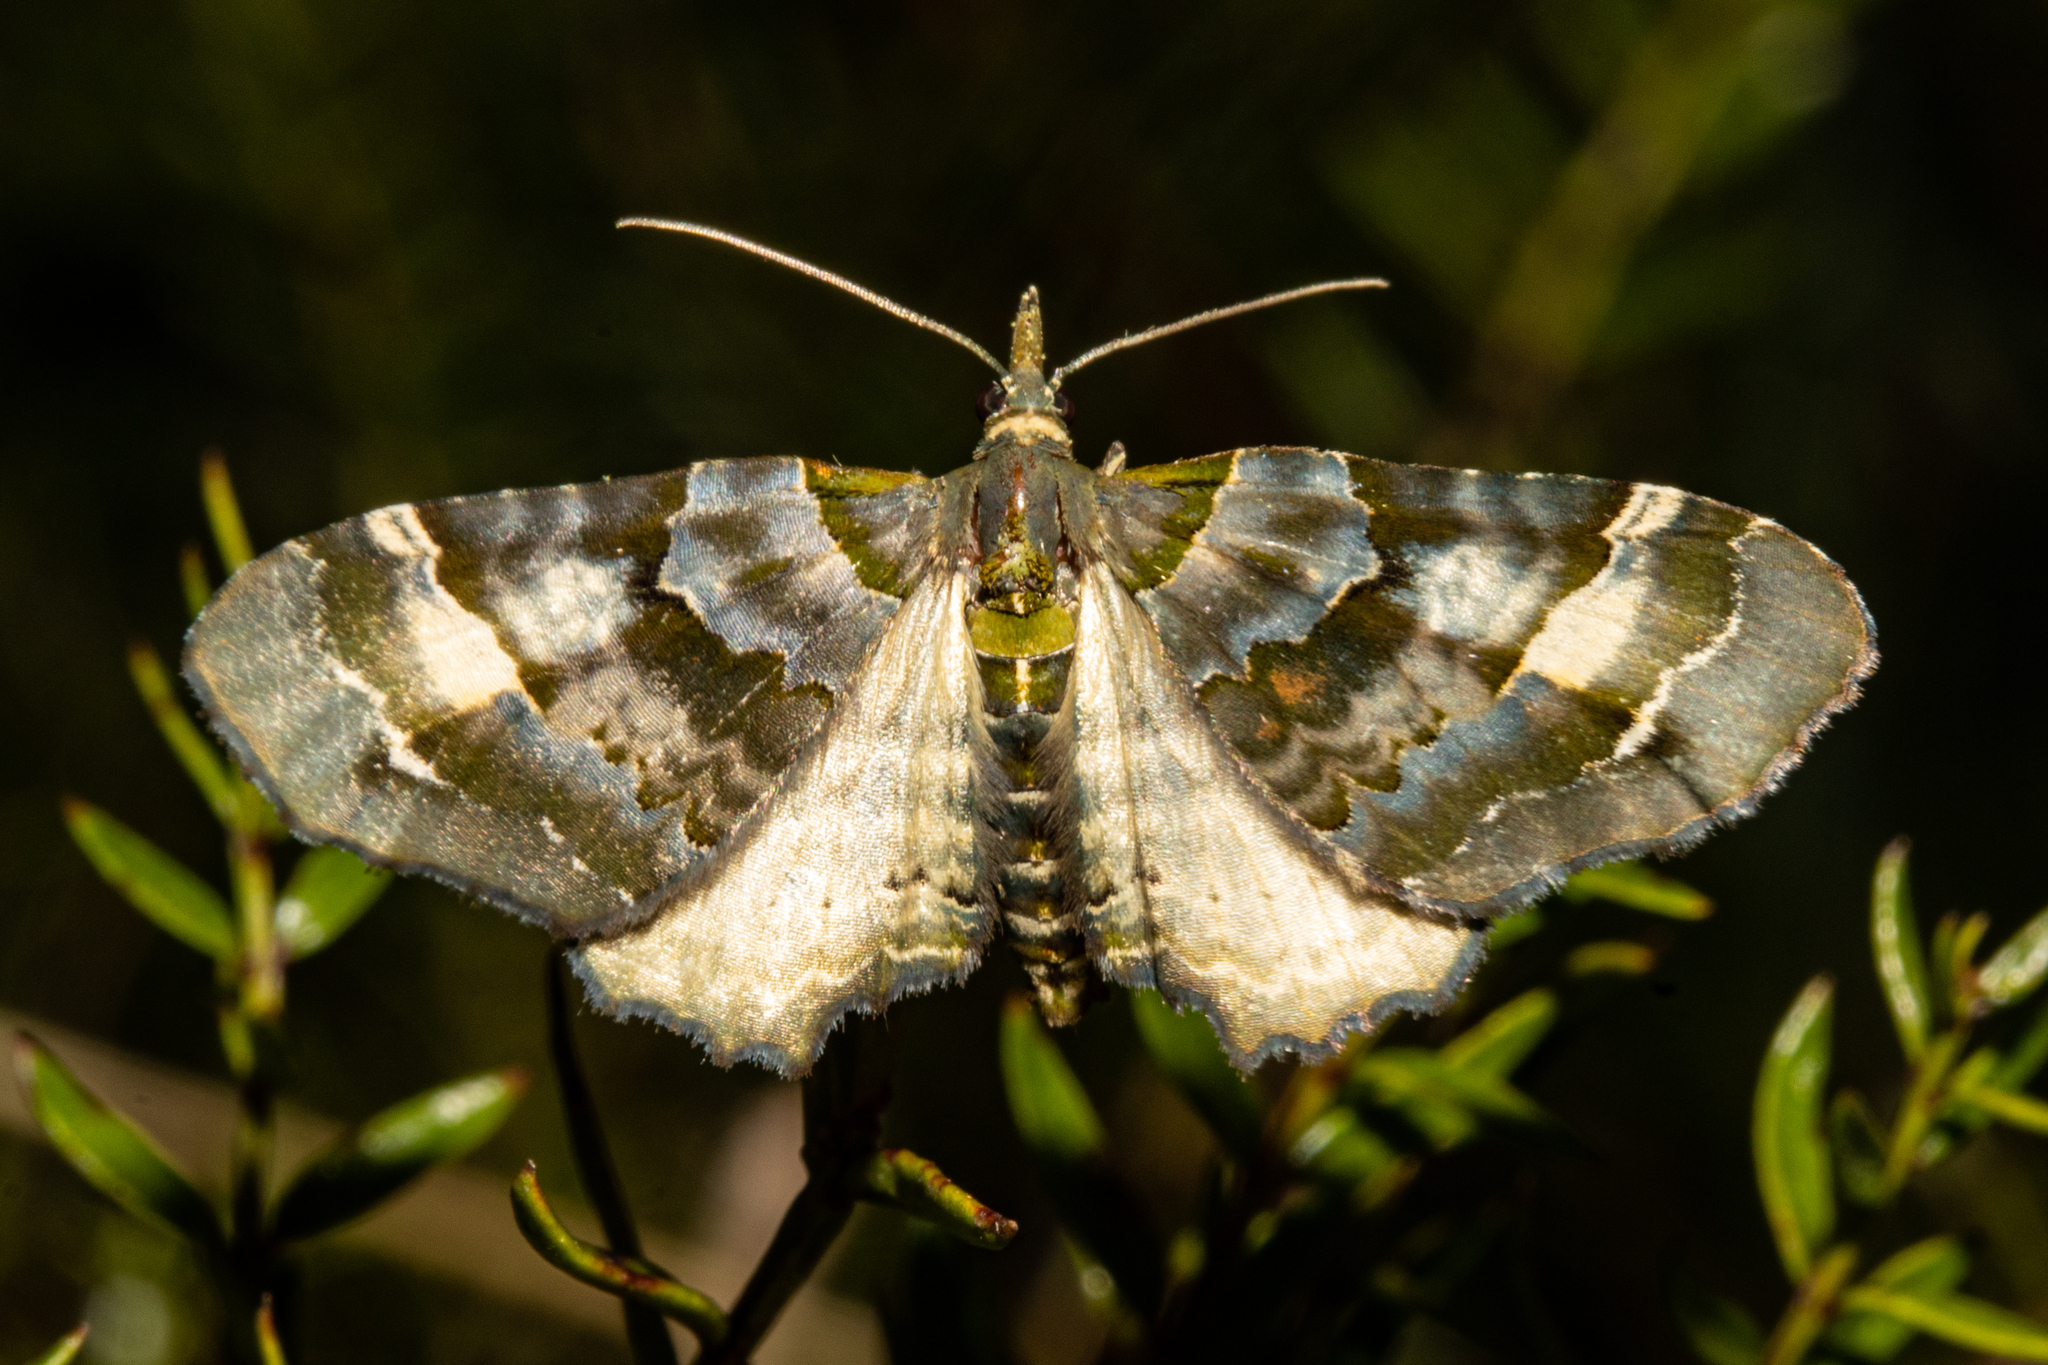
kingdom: Animalia
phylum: Arthropoda
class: Insecta
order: Lepidoptera
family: Geometridae
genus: Elvia
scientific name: Elvia glaucata
